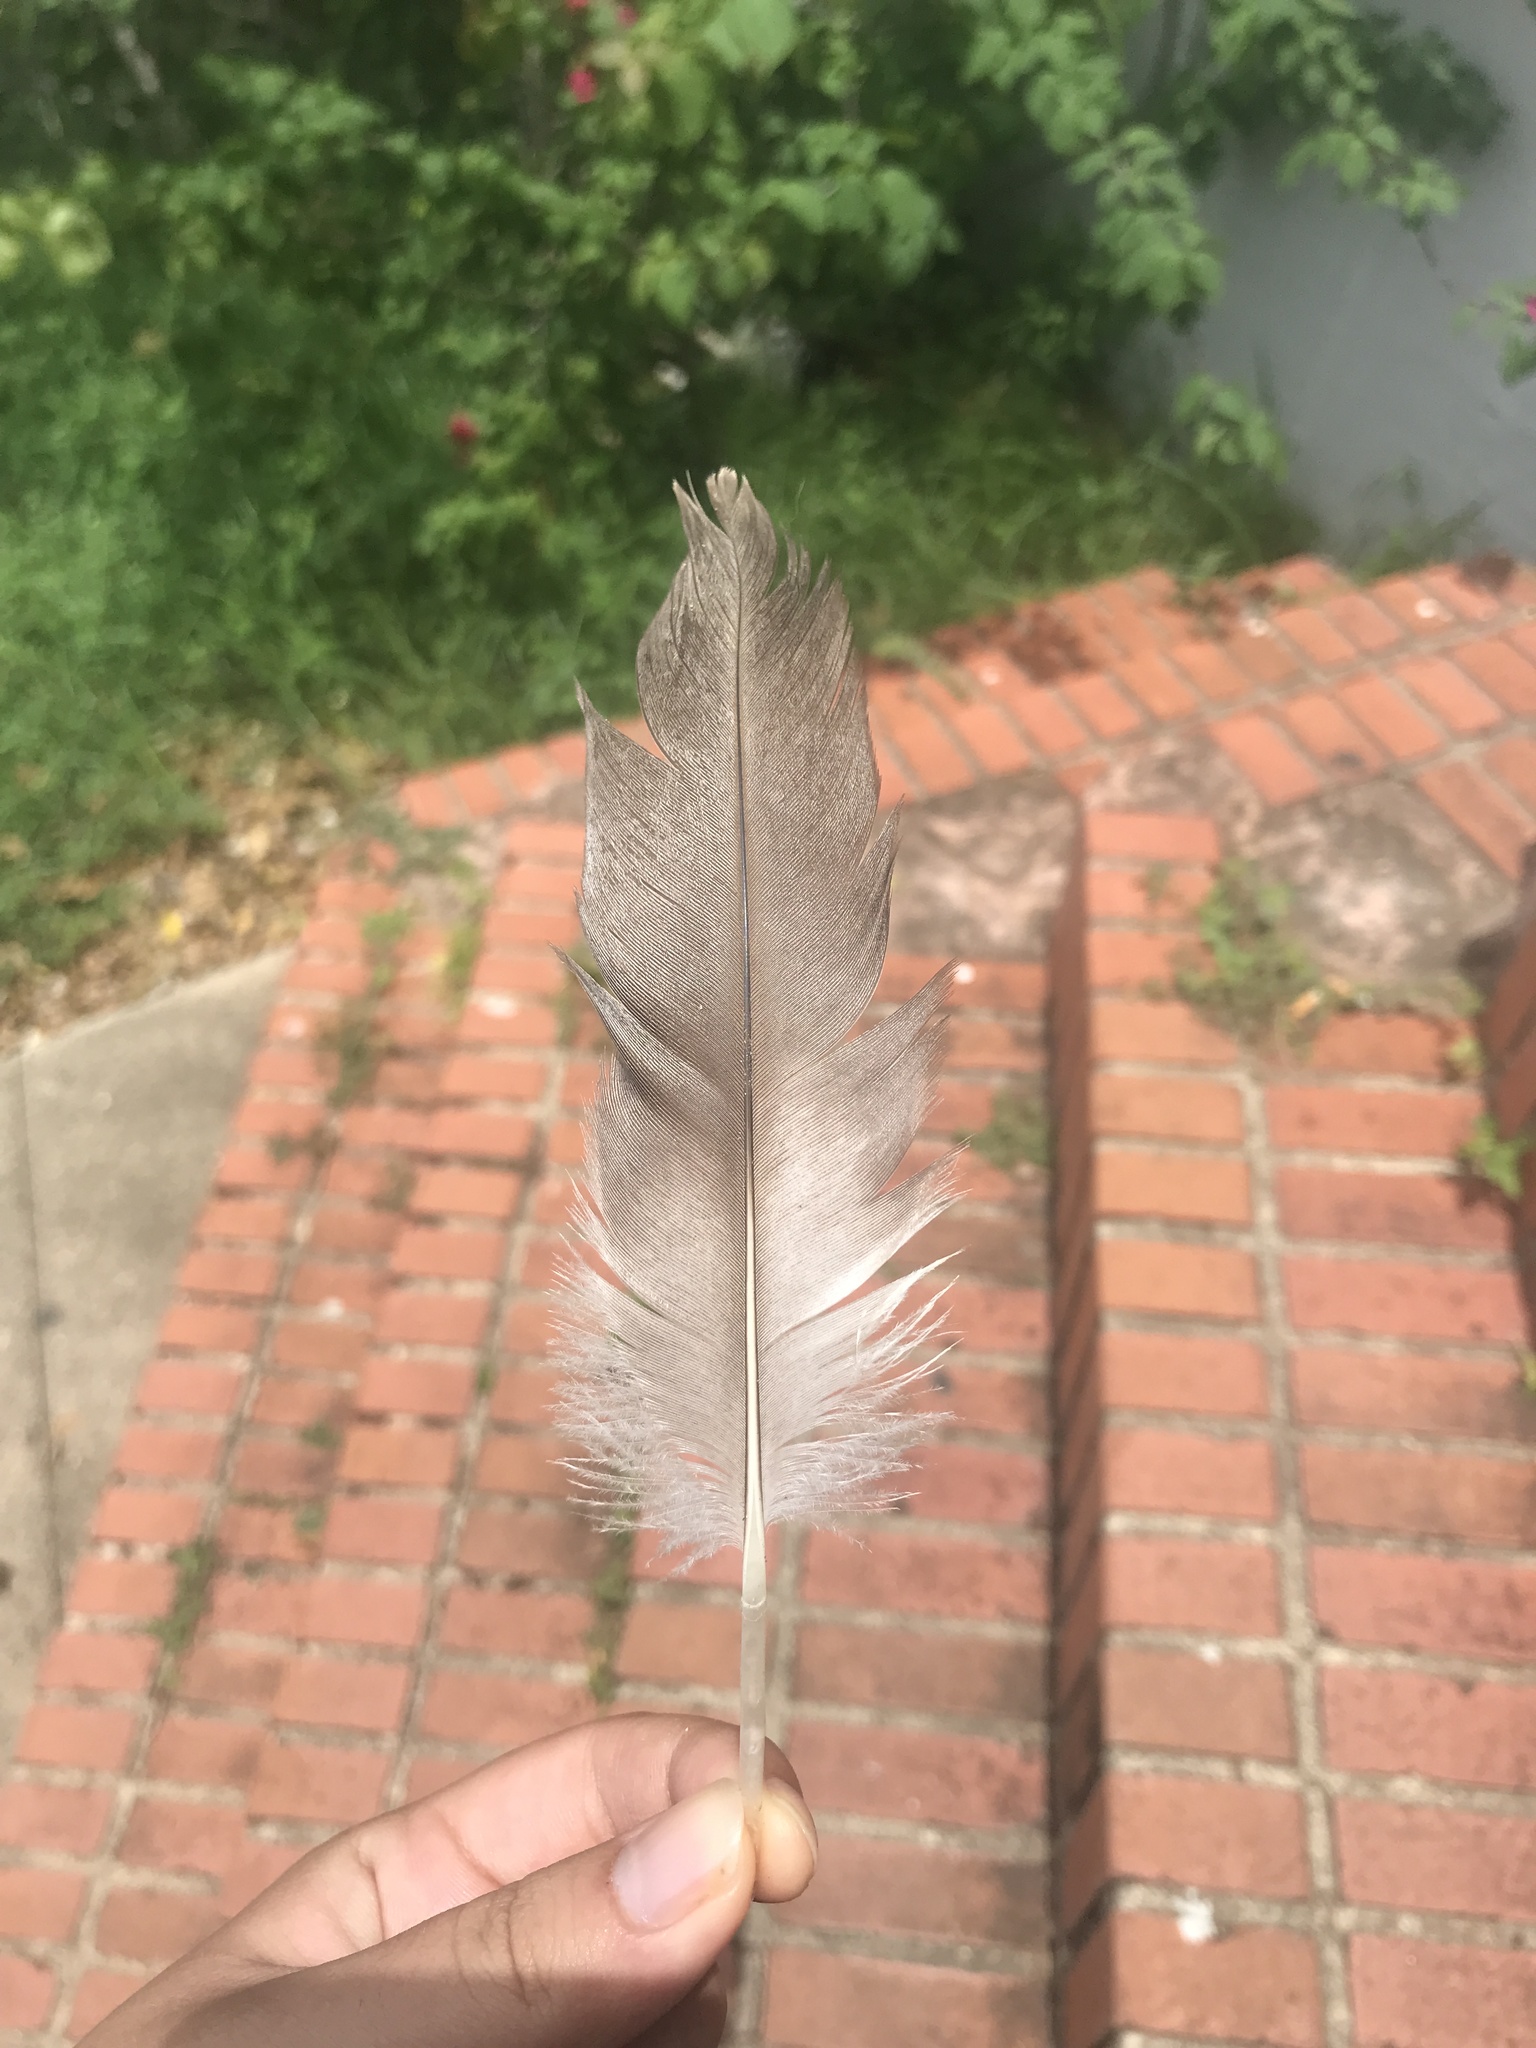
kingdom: Animalia
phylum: Chordata
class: Aves
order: Pelecaniformes
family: Pelecanidae
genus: Pelecanus
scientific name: Pelecanus occidentalis
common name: Brown pelican
